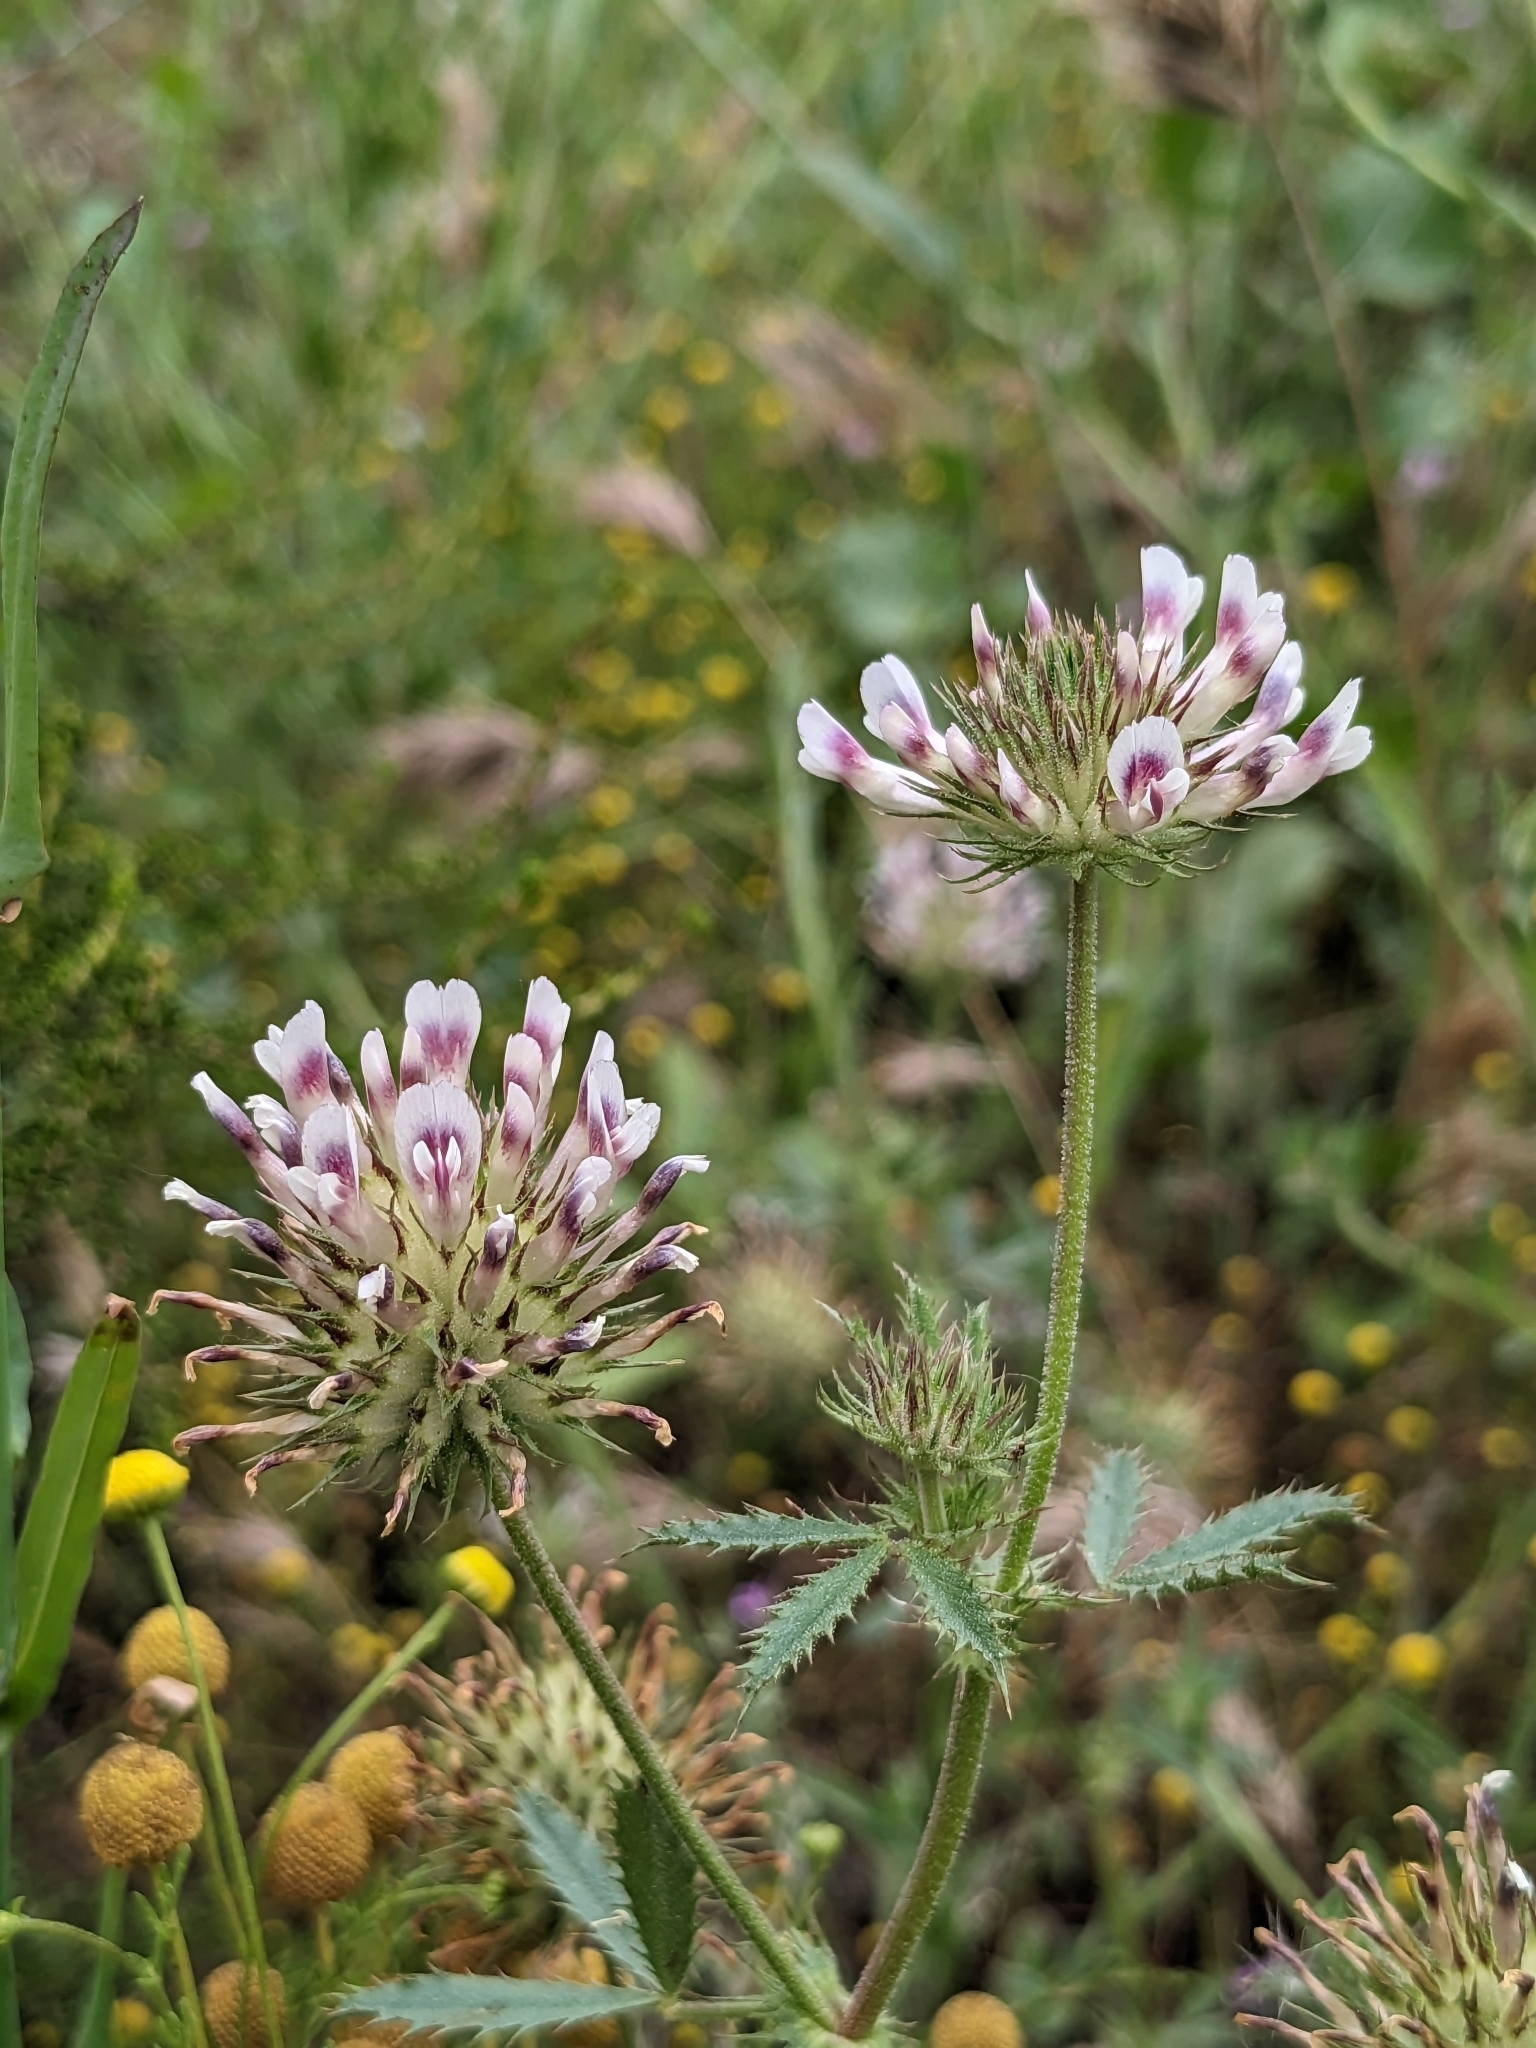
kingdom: Plantae
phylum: Tracheophyta
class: Magnoliopsida
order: Fabales
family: Fabaceae
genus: Trifolium
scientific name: Trifolium obtusiflorum
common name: Clammy clover
